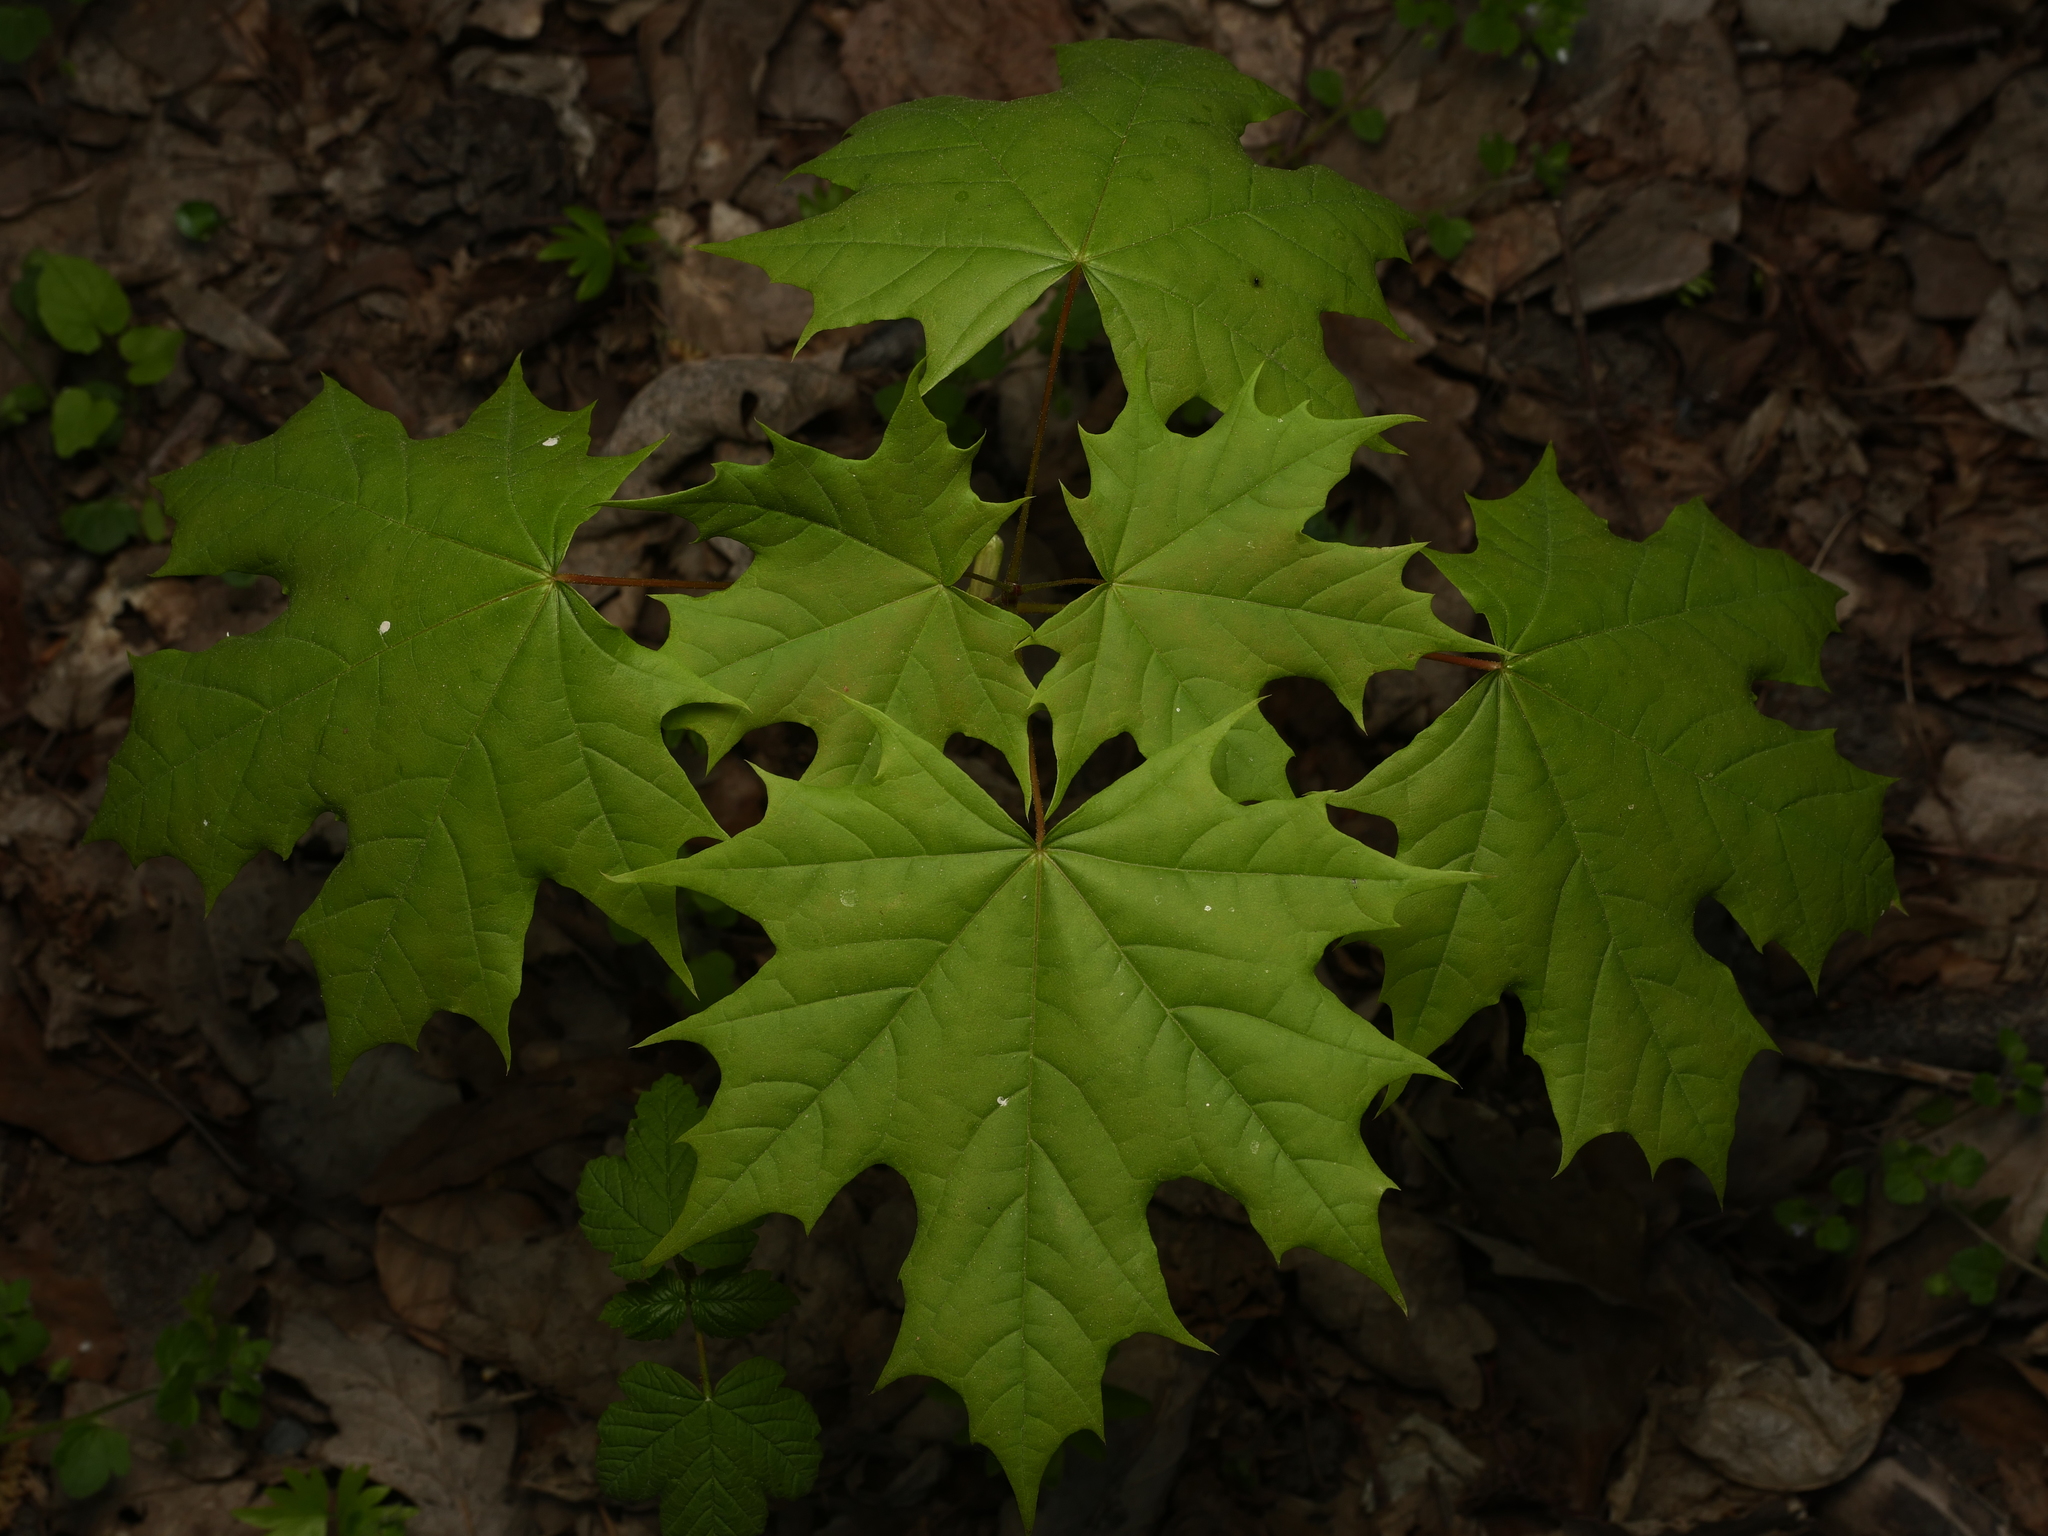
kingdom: Plantae
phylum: Tracheophyta
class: Magnoliopsida
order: Sapindales
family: Sapindaceae
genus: Acer
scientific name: Acer platanoides
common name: Norway maple
